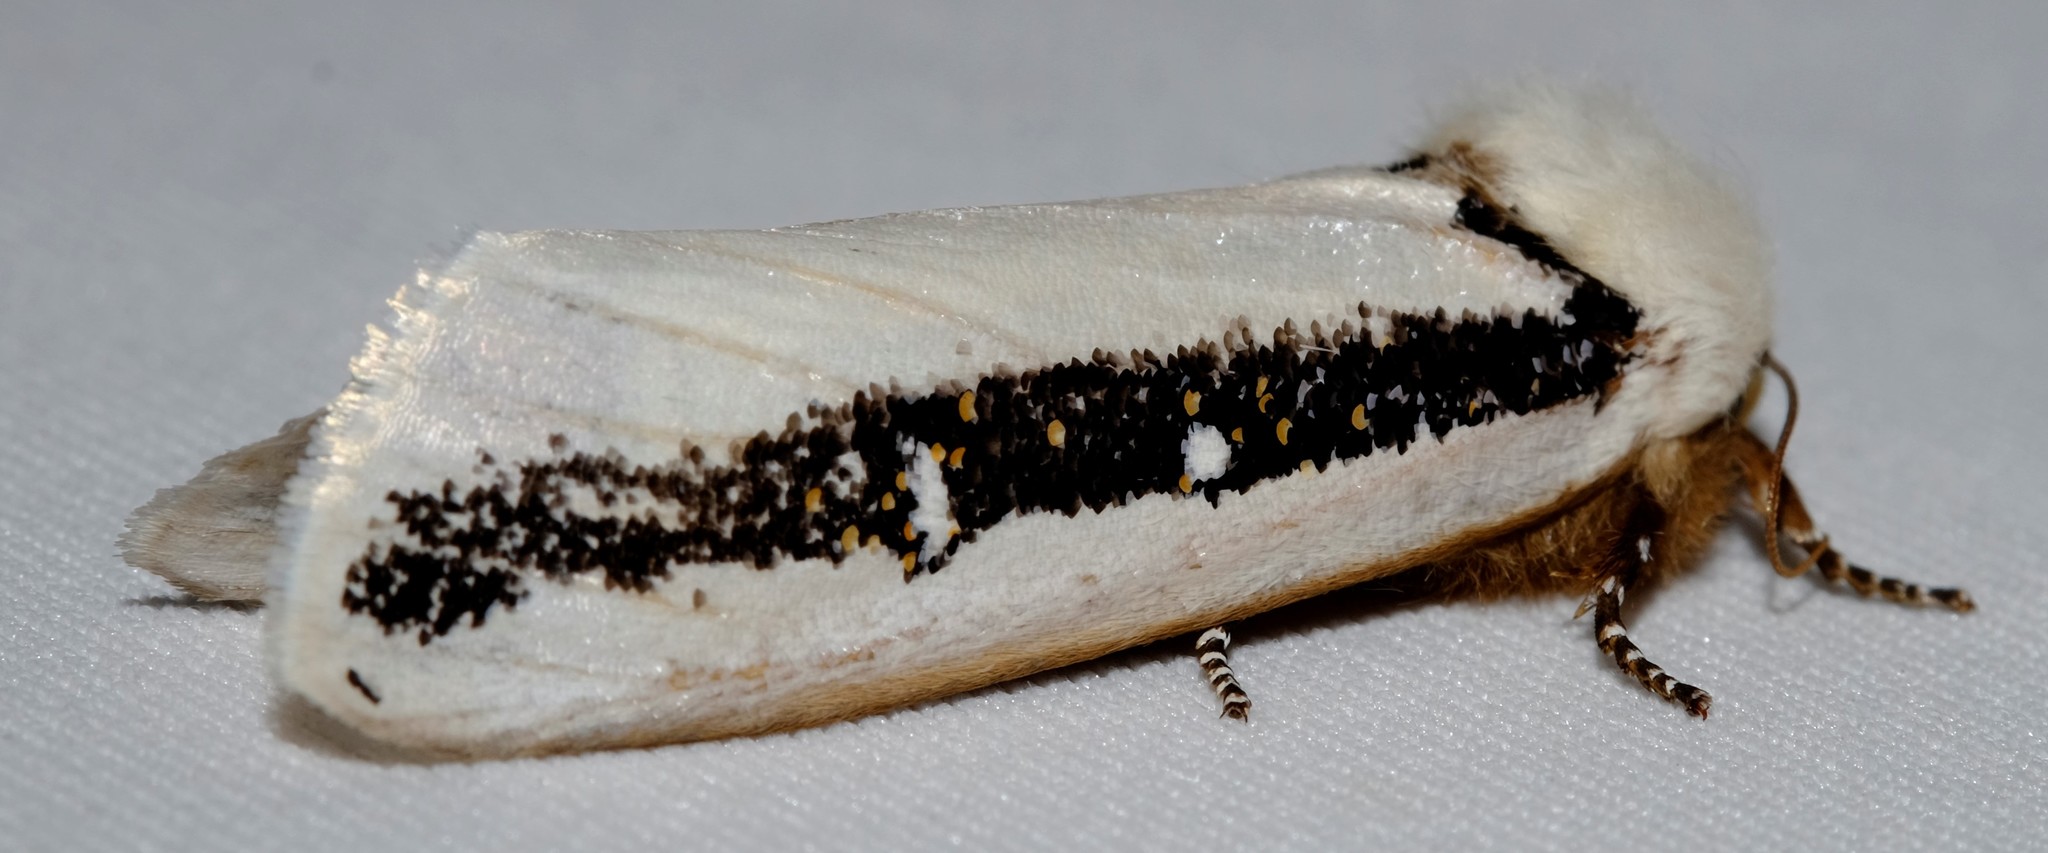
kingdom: Animalia
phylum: Arthropoda
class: Insecta
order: Lepidoptera
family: Oenosandridae
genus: Oenosandra
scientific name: Oenosandra boisduvalii
